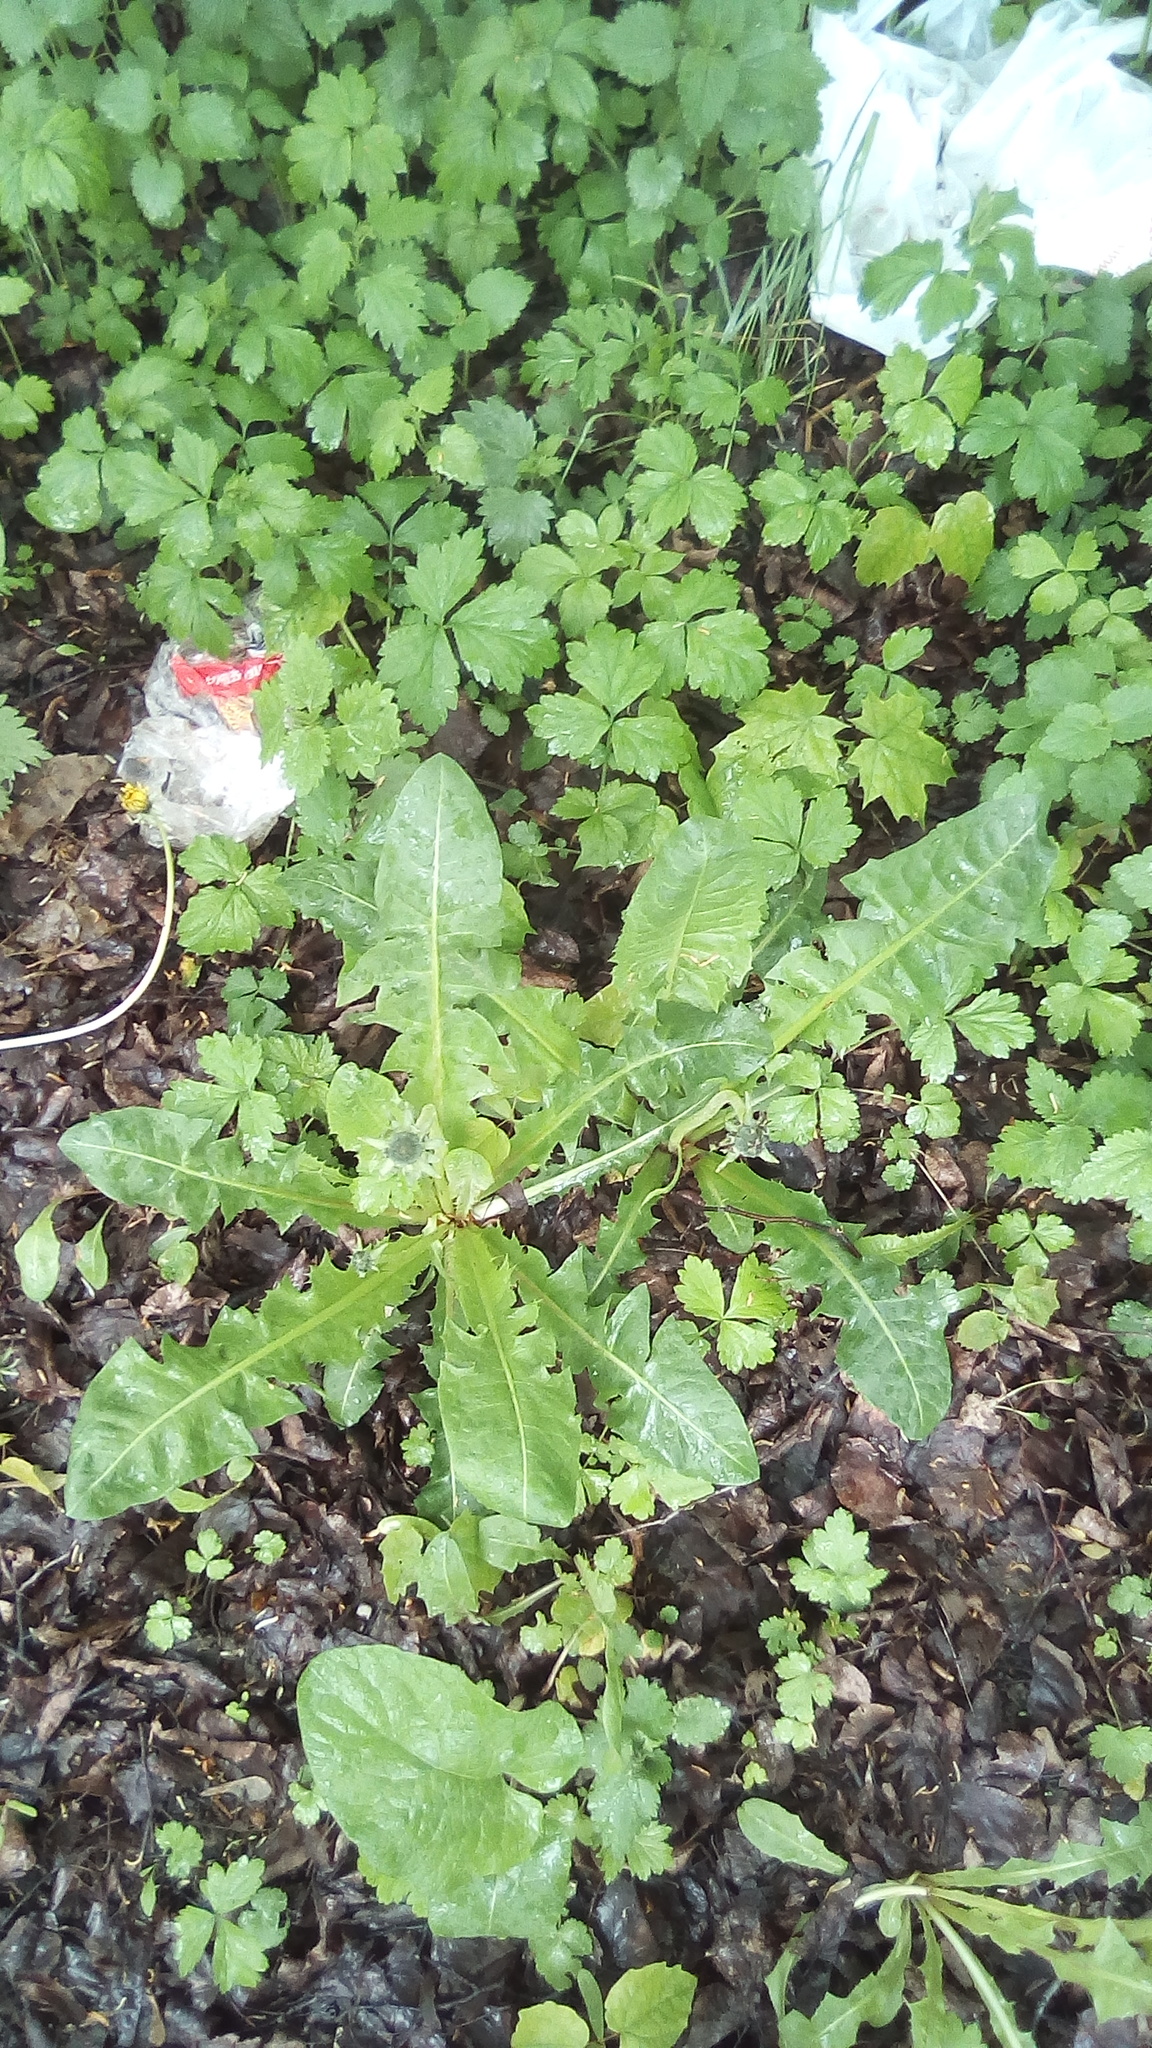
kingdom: Plantae
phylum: Tracheophyta
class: Magnoliopsida
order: Asterales
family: Asteraceae
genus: Taraxacum
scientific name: Taraxacum officinale
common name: Common dandelion
